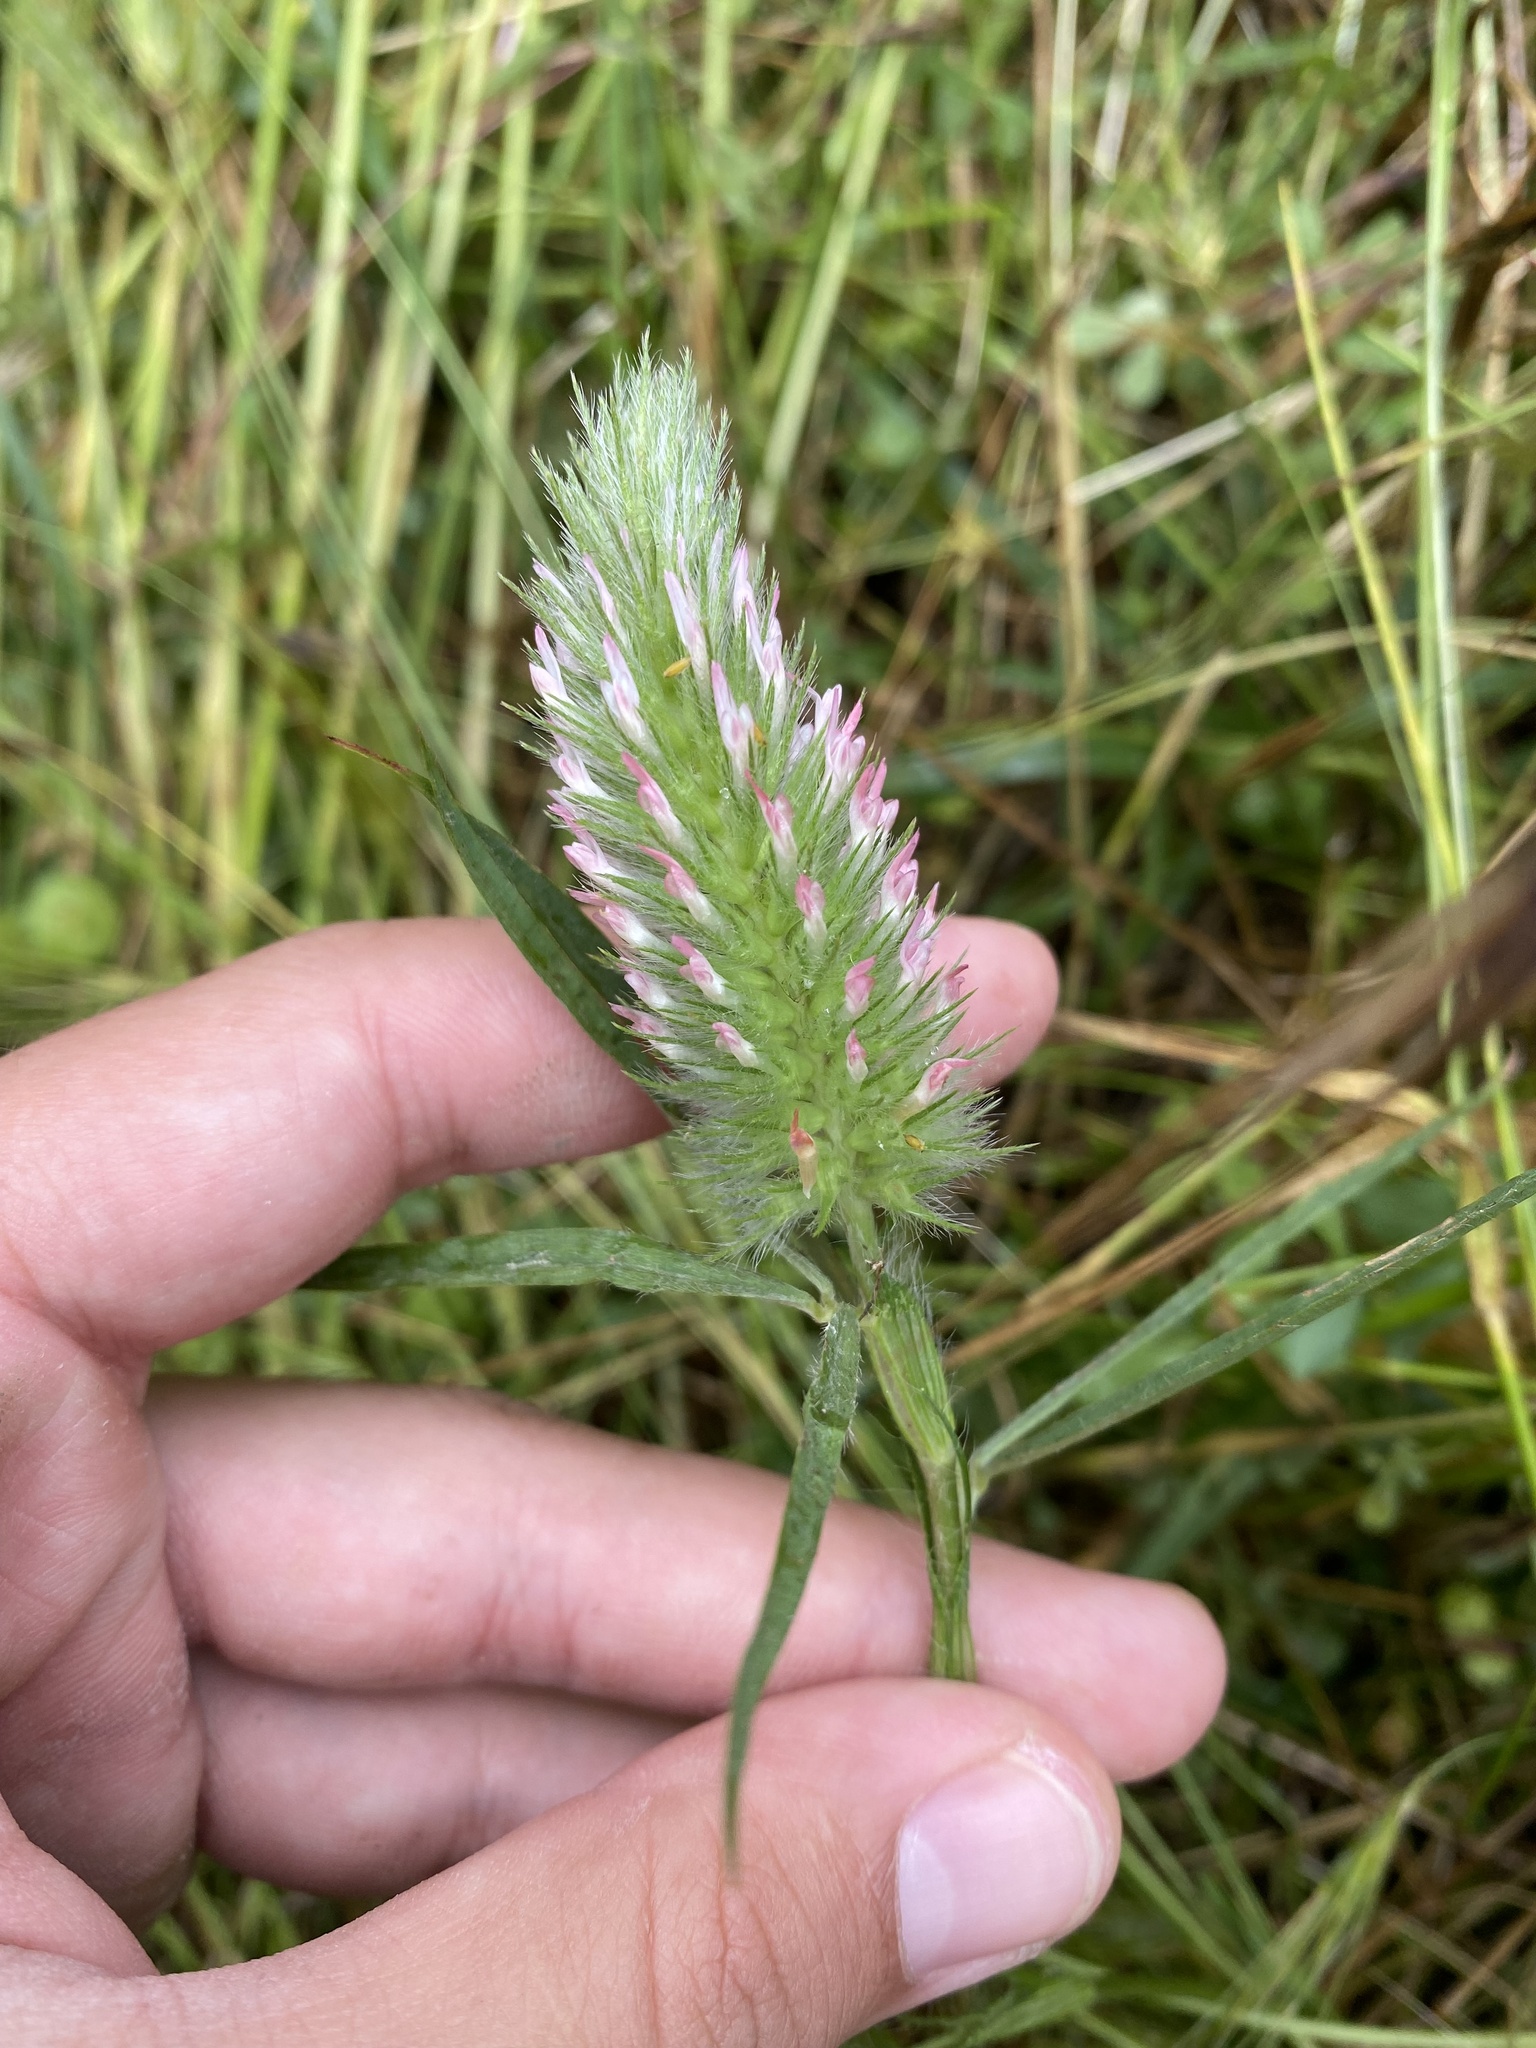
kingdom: Plantae
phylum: Tracheophyta
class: Magnoliopsida
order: Fabales
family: Fabaceae
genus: Trifolium
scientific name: Trifolium angustifolium
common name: Narrow clover
